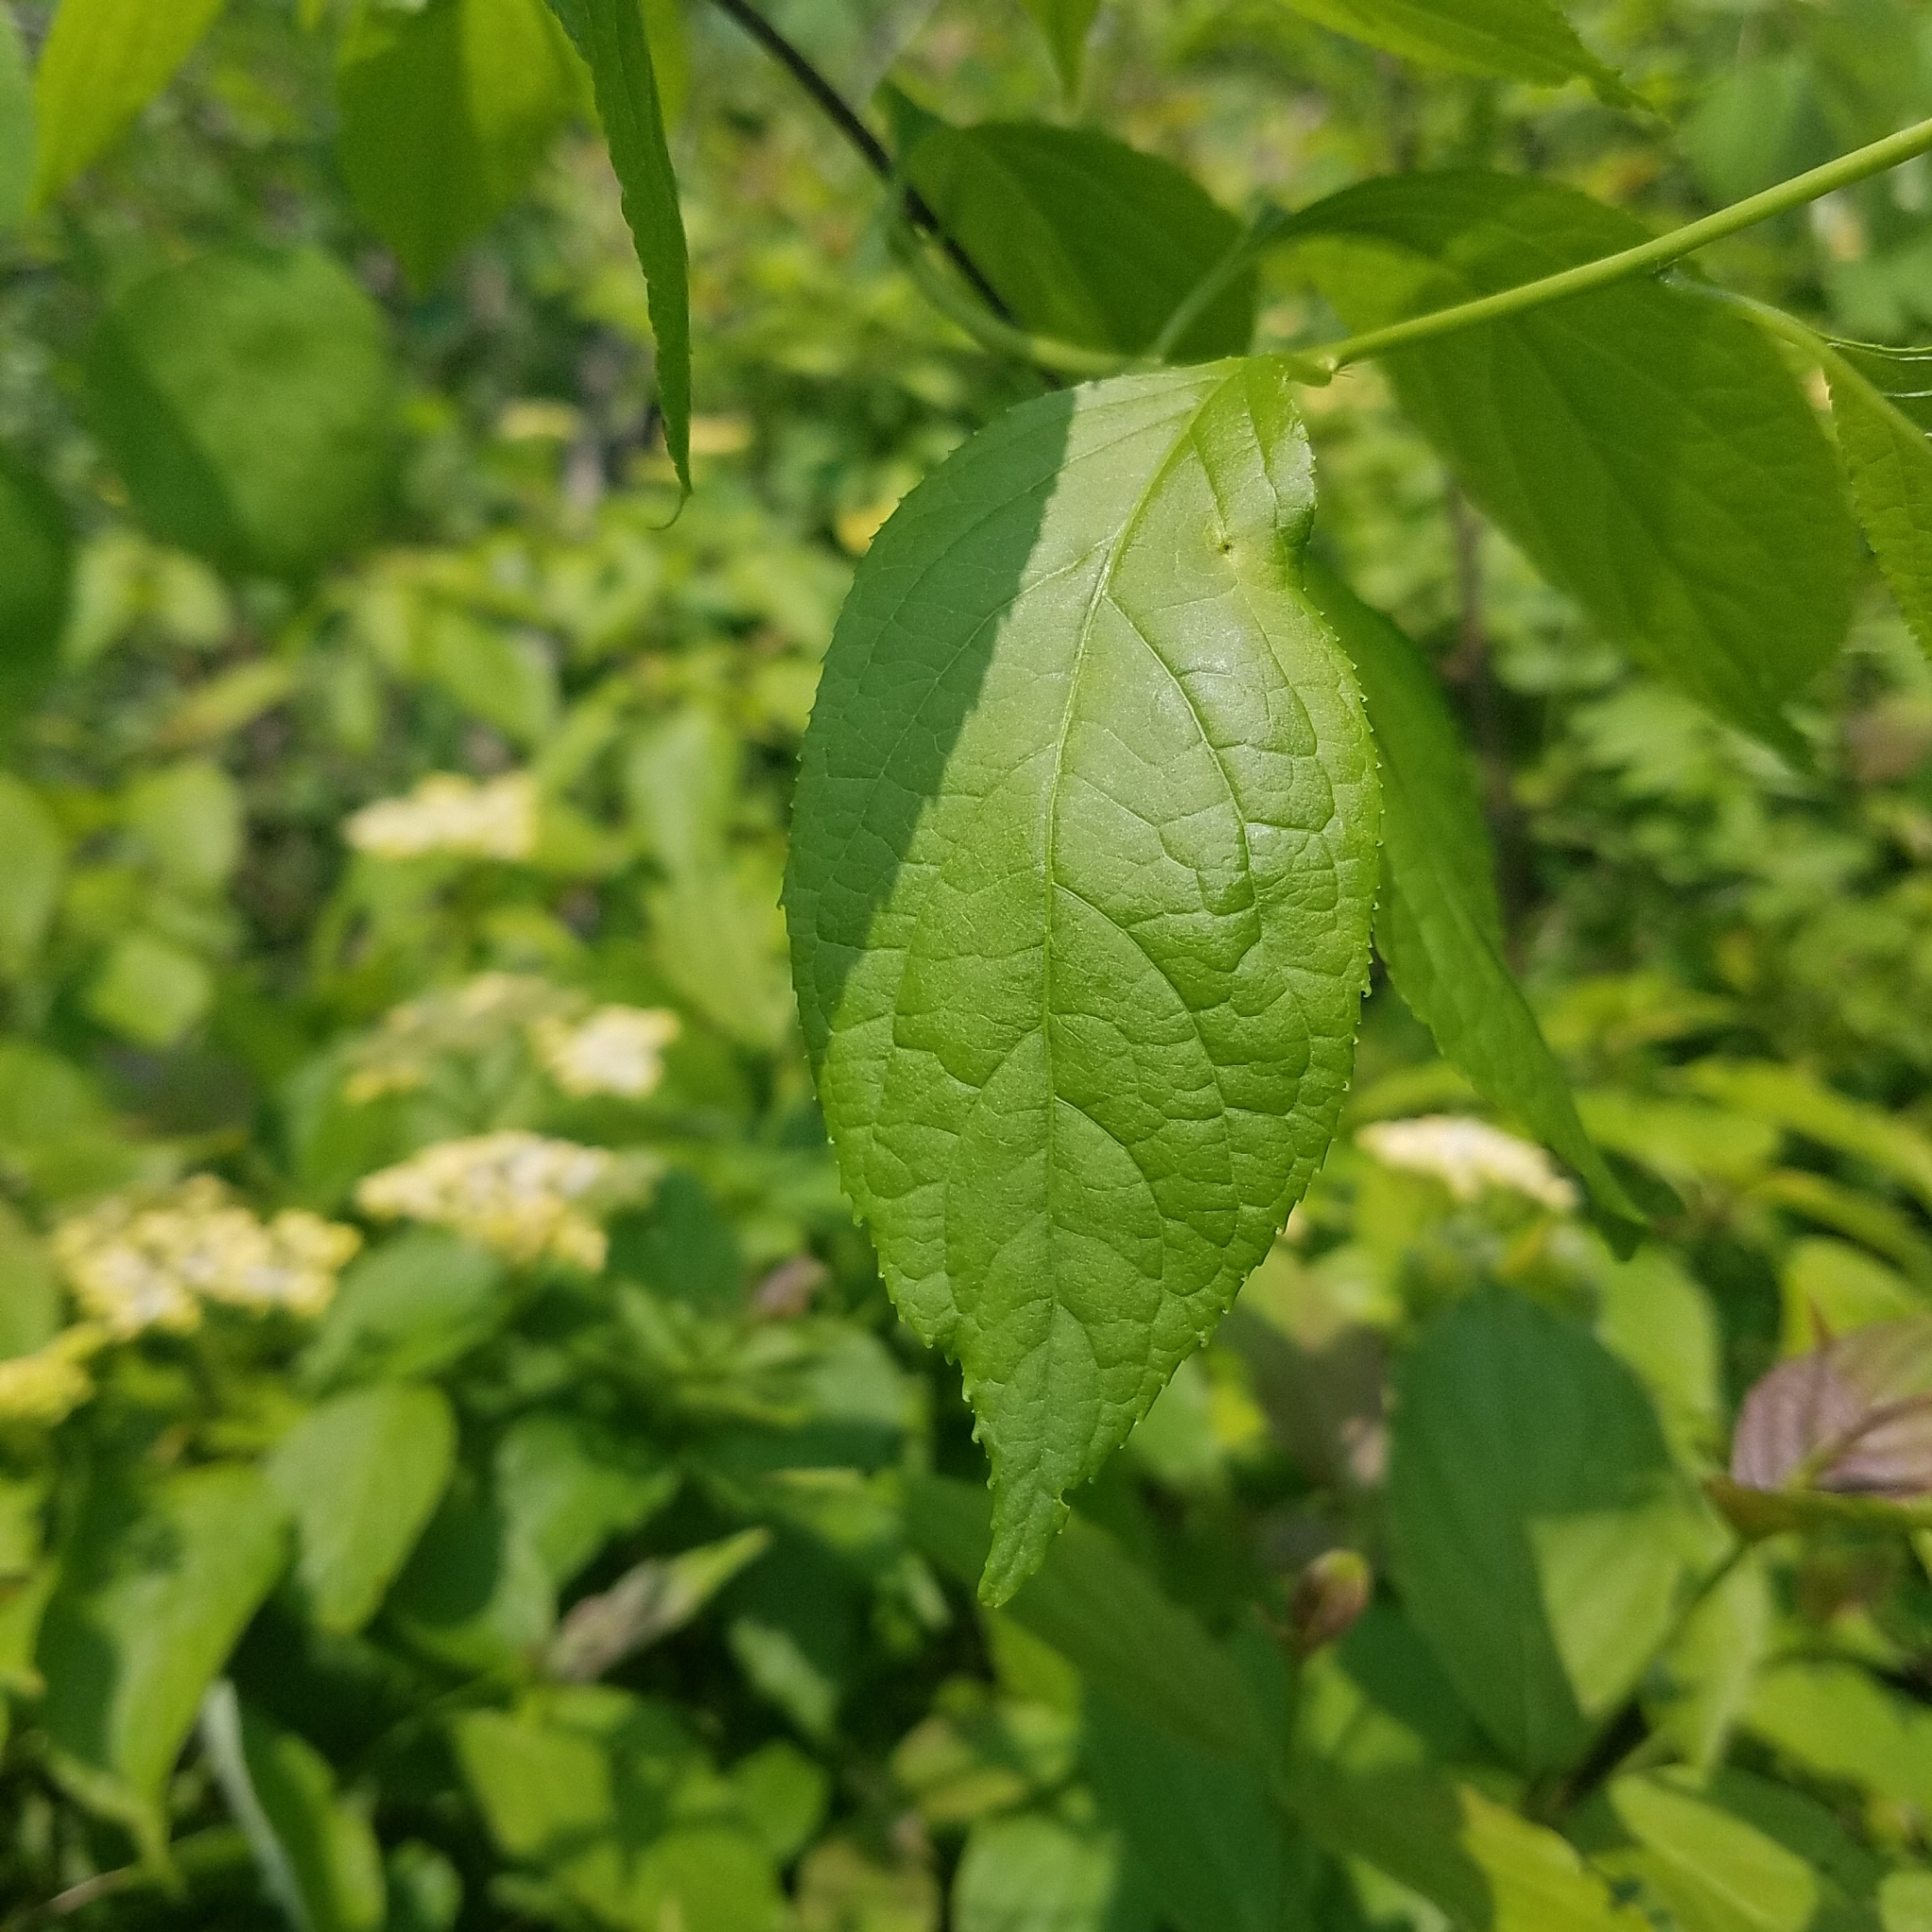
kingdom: Plantae
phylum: Tracheophyta
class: Magnoliopsida
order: Celastrales
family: Celastraceae
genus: Celastrus
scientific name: Celastrus scandens
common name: American bittersweet
